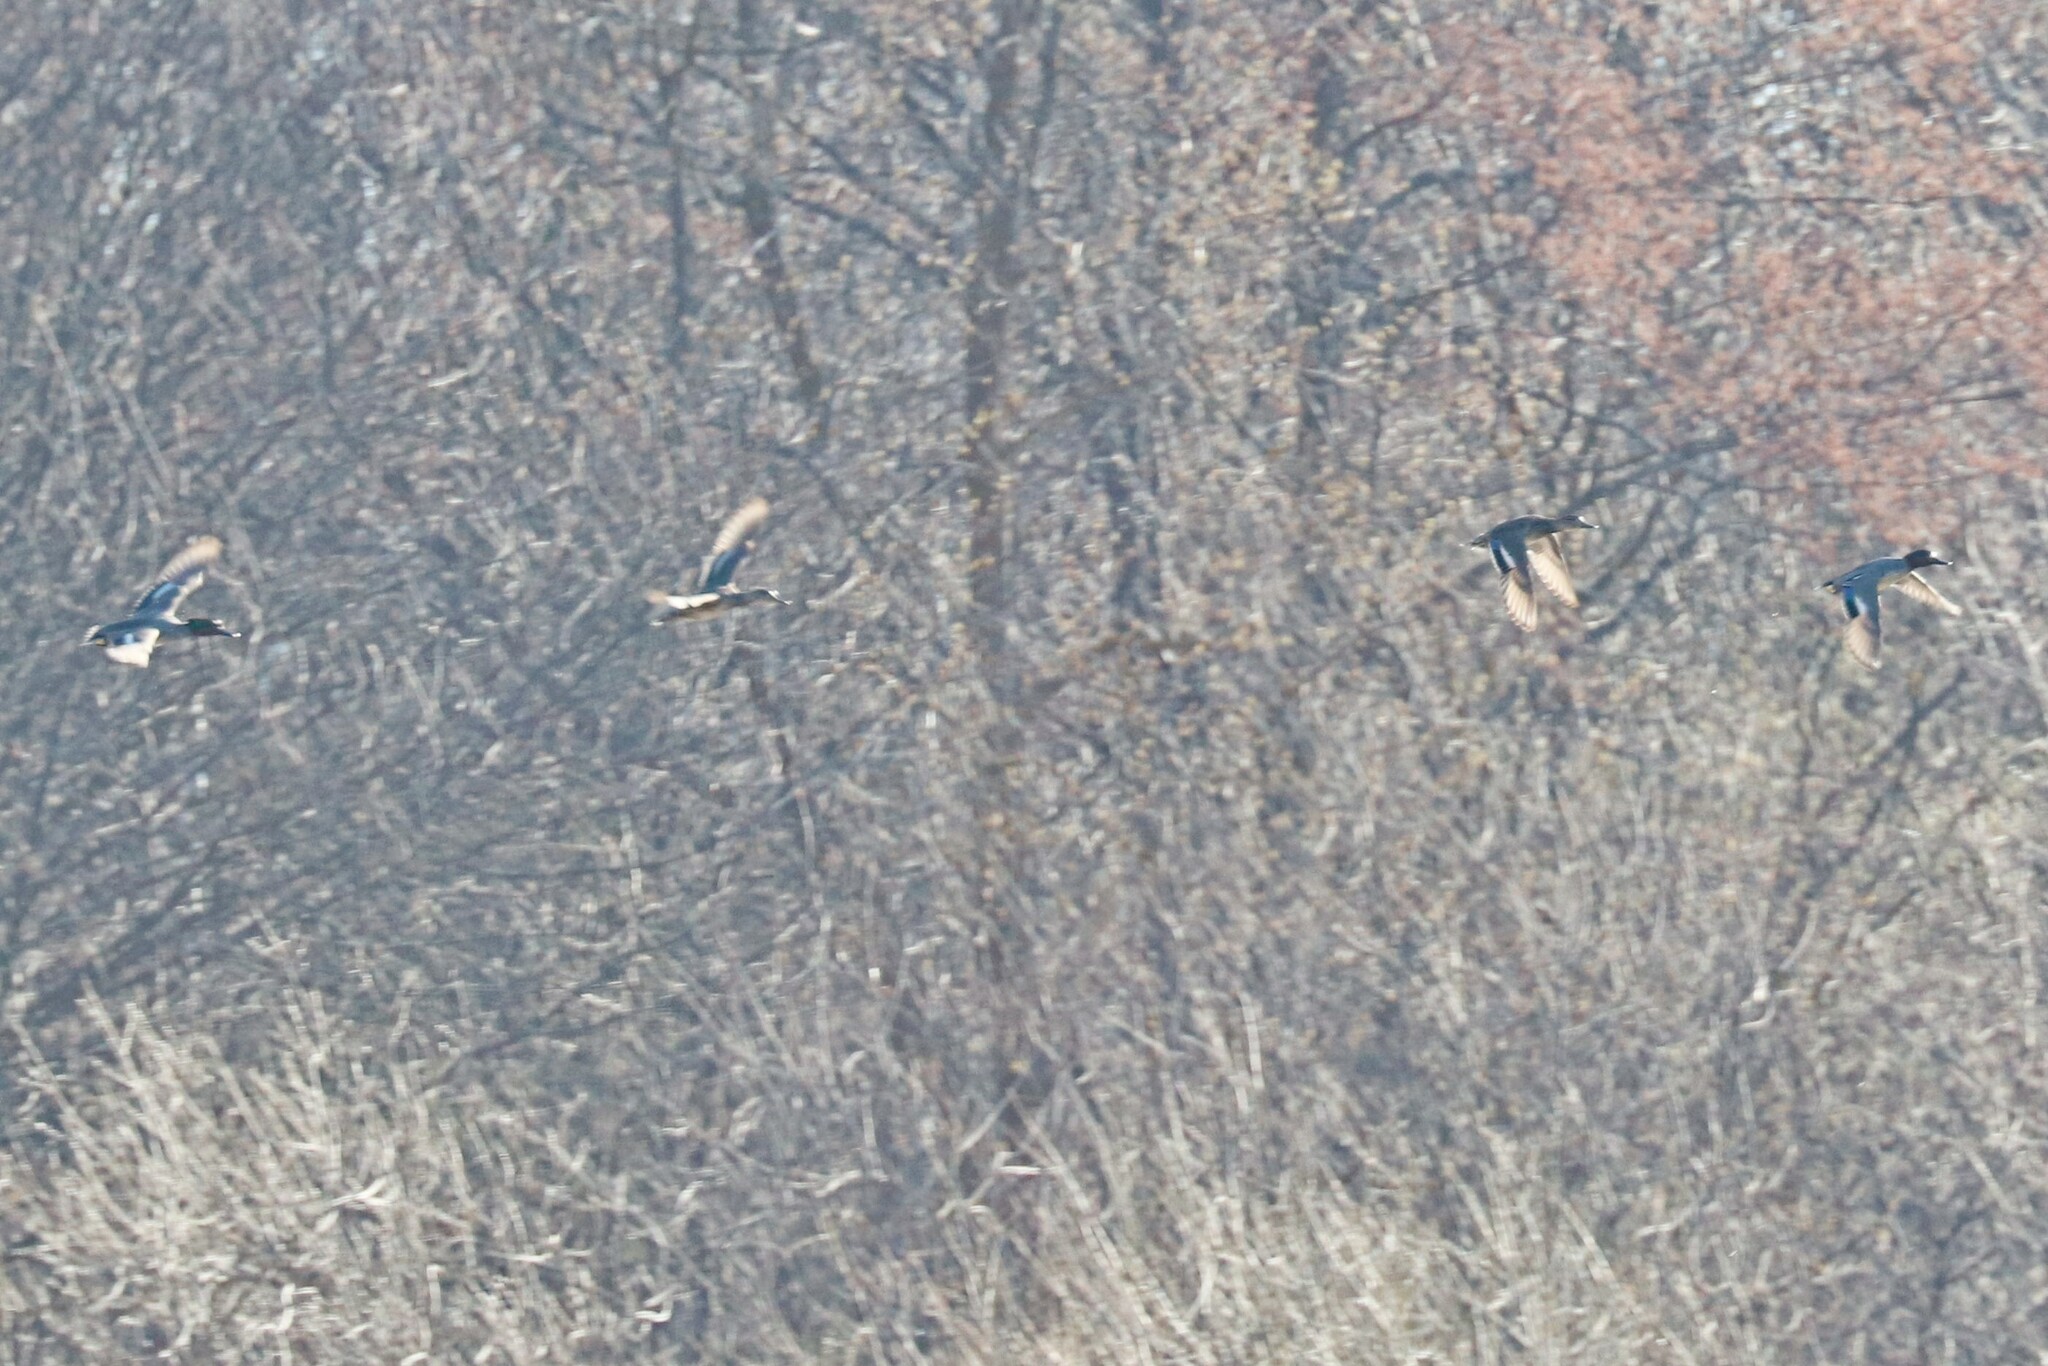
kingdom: Animalia
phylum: Chordata
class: Aves
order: Anseriformes
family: Anatidae
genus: Anas
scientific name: Anas crecca
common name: Eurasian teal
